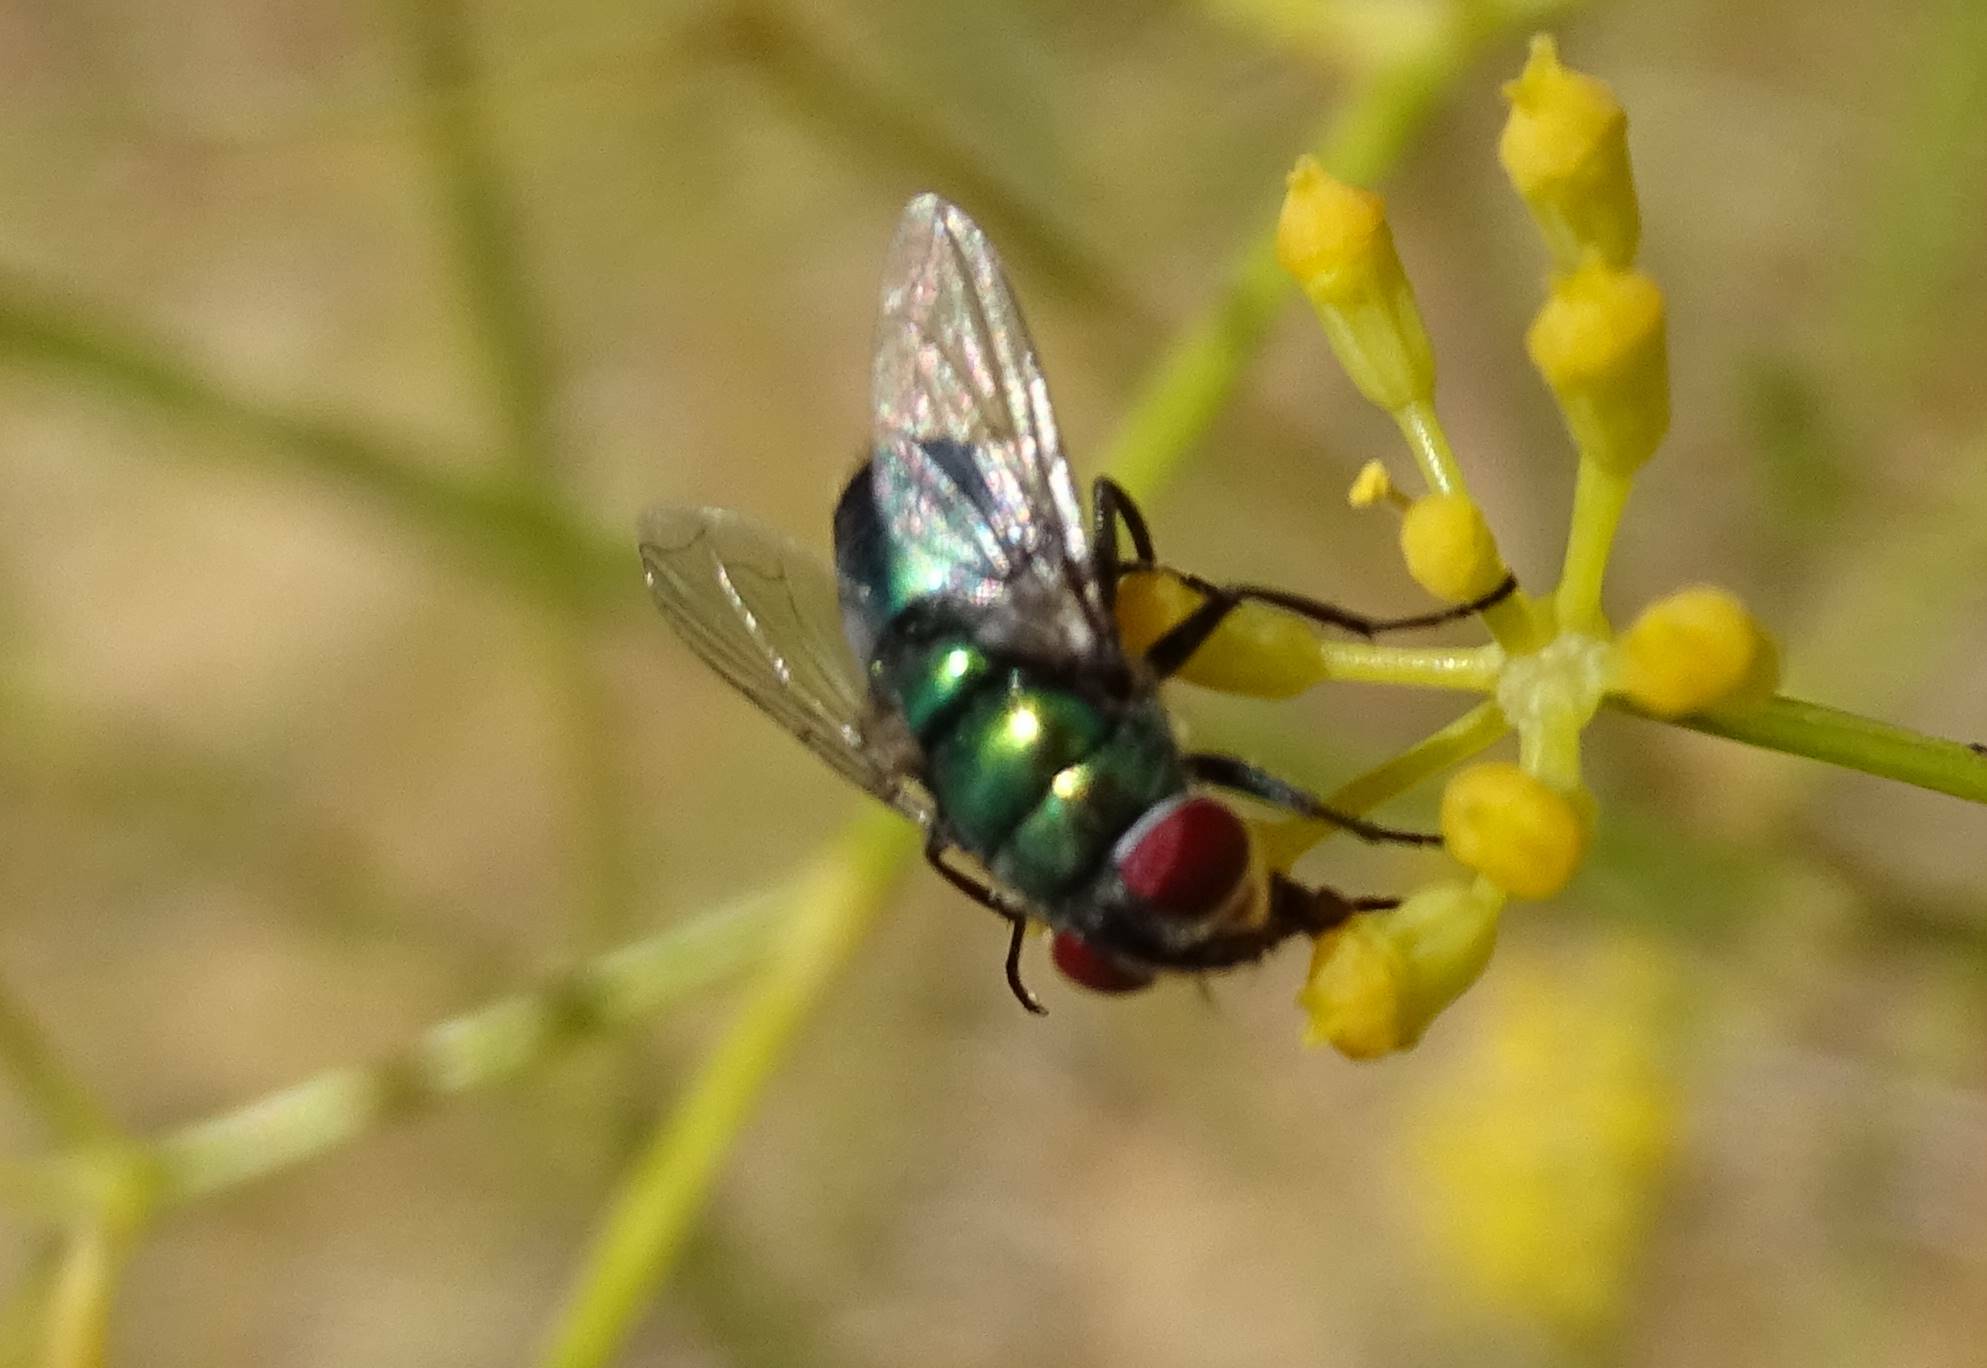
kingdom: Animalia
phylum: Arthropoda
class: Insecta
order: Diptera
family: Calliphoridae
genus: Chrysomya
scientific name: Chrysomya albiceps
